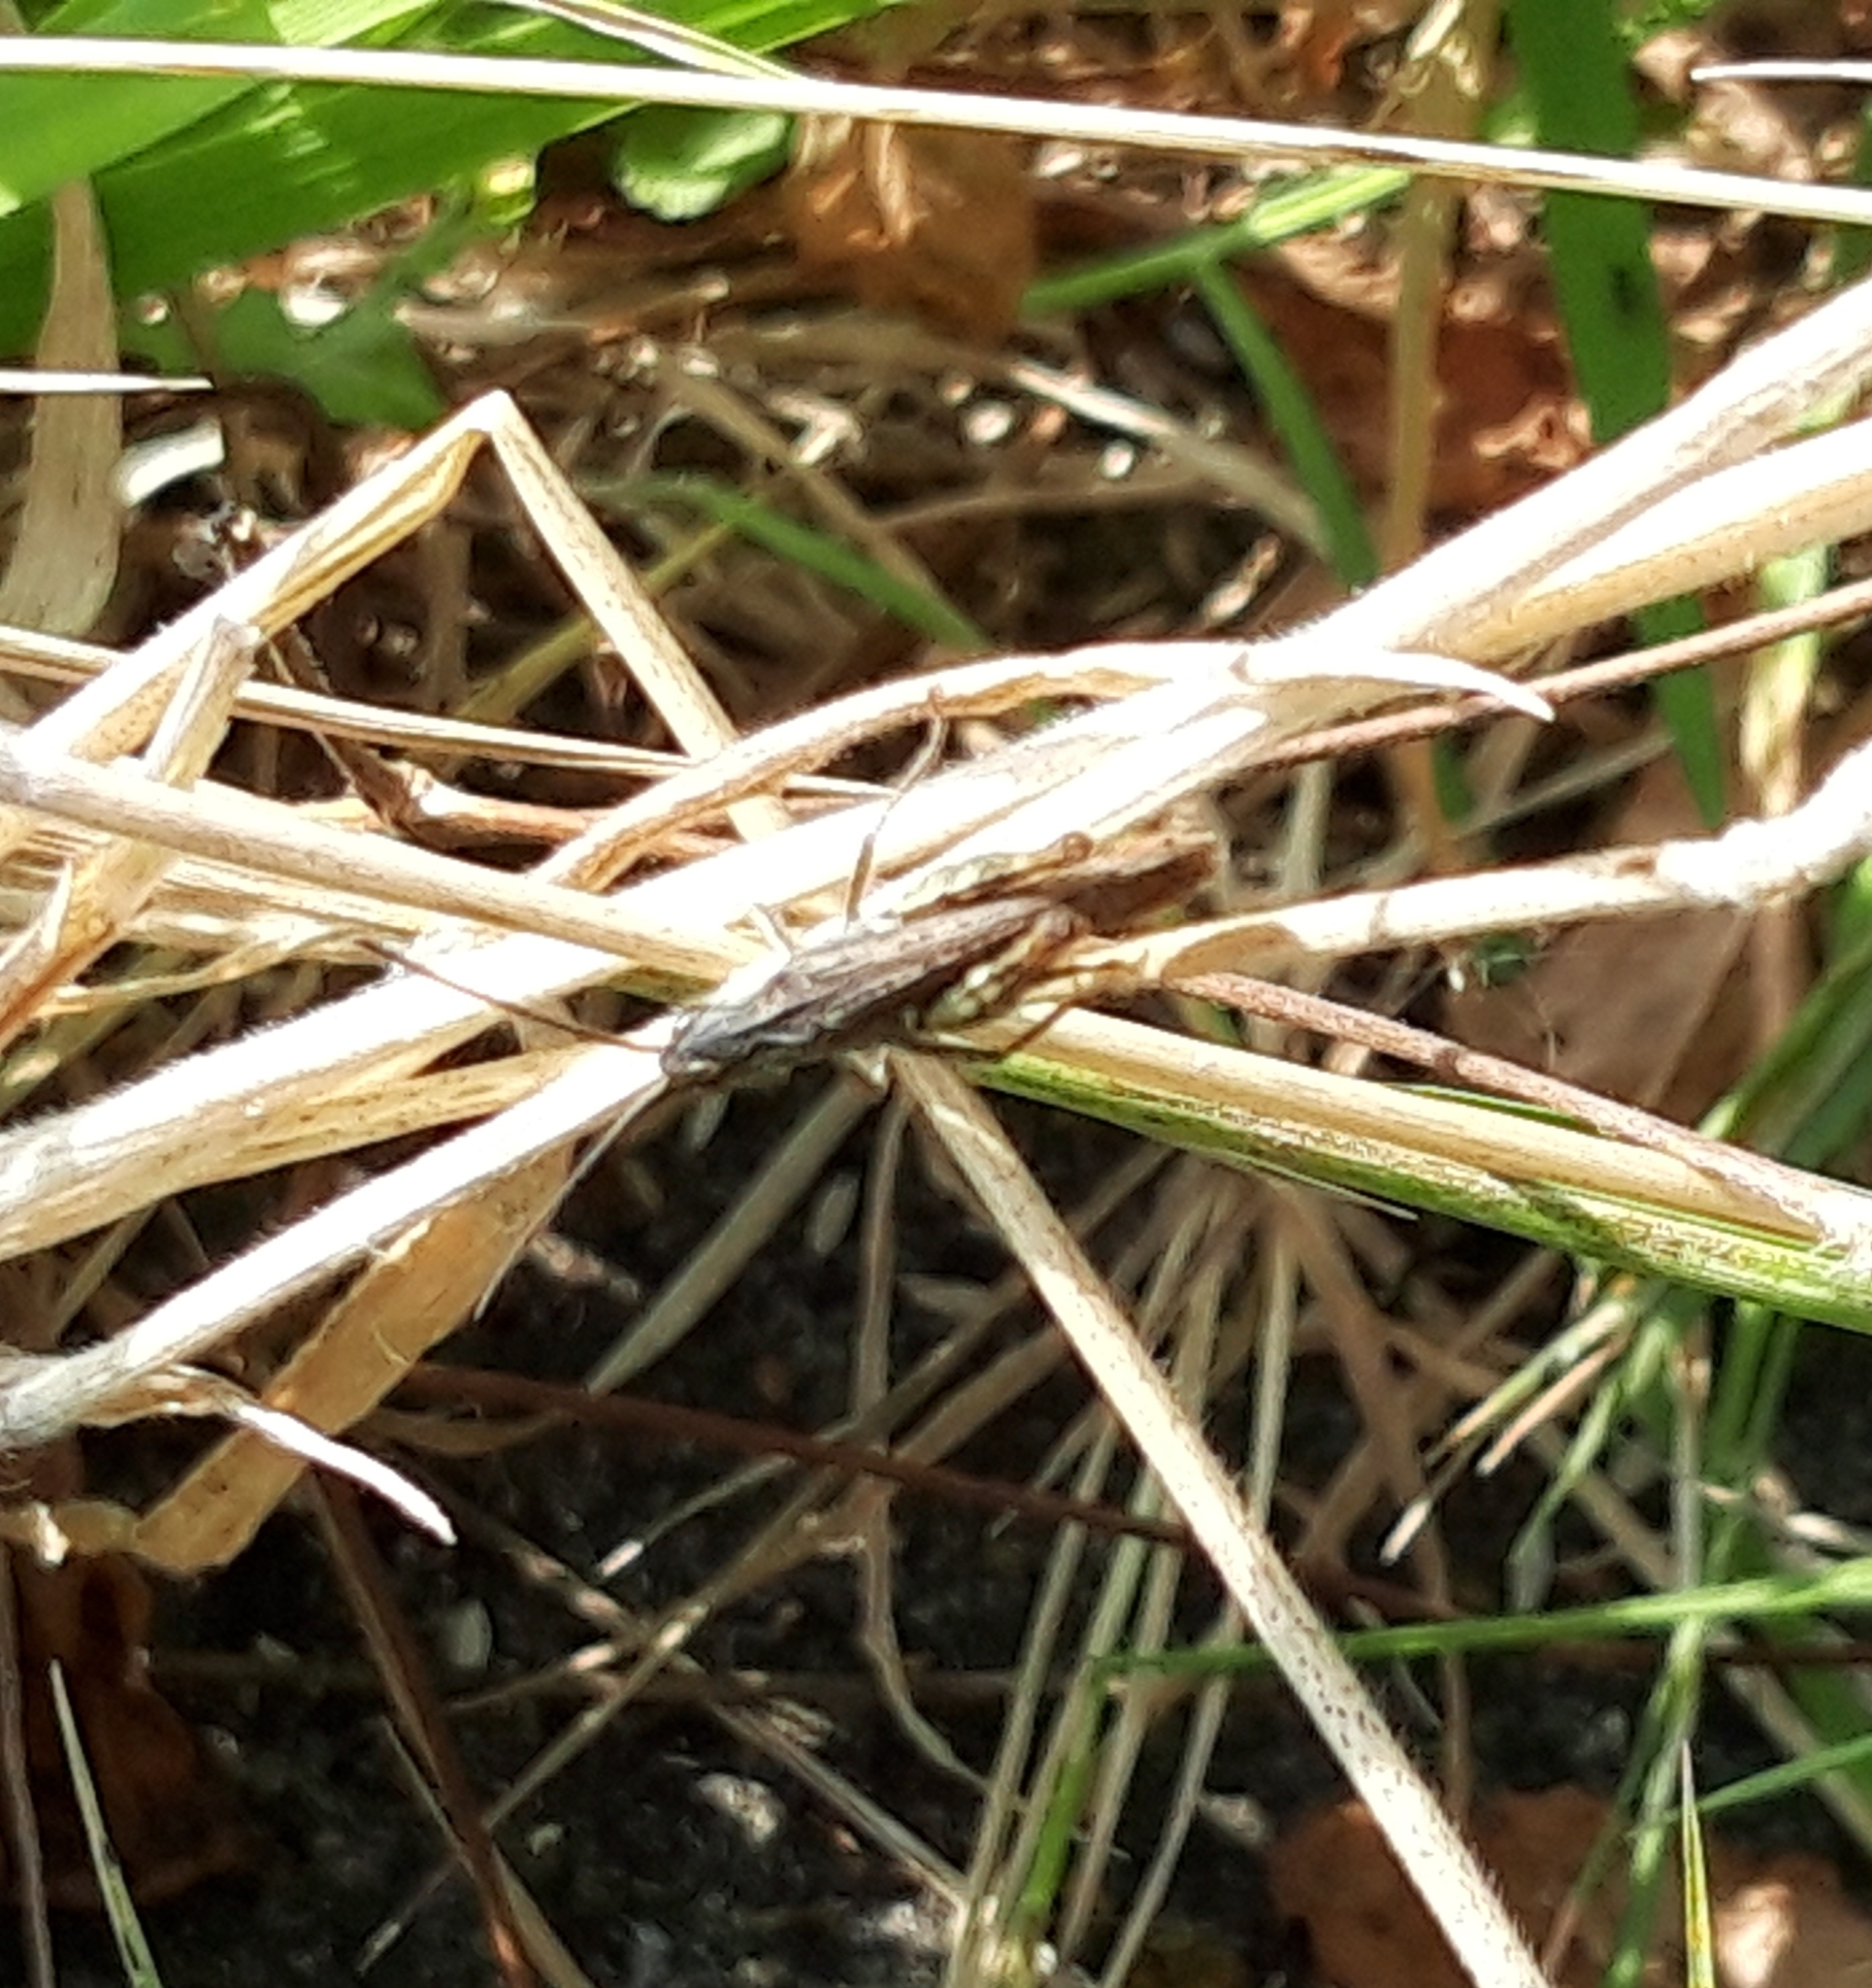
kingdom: Animalia
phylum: Arthropoda
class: Insecta
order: Orthoptera
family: Acrididae
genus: Chorthippus
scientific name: Chorthippus brunneus
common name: Field grasshopper
